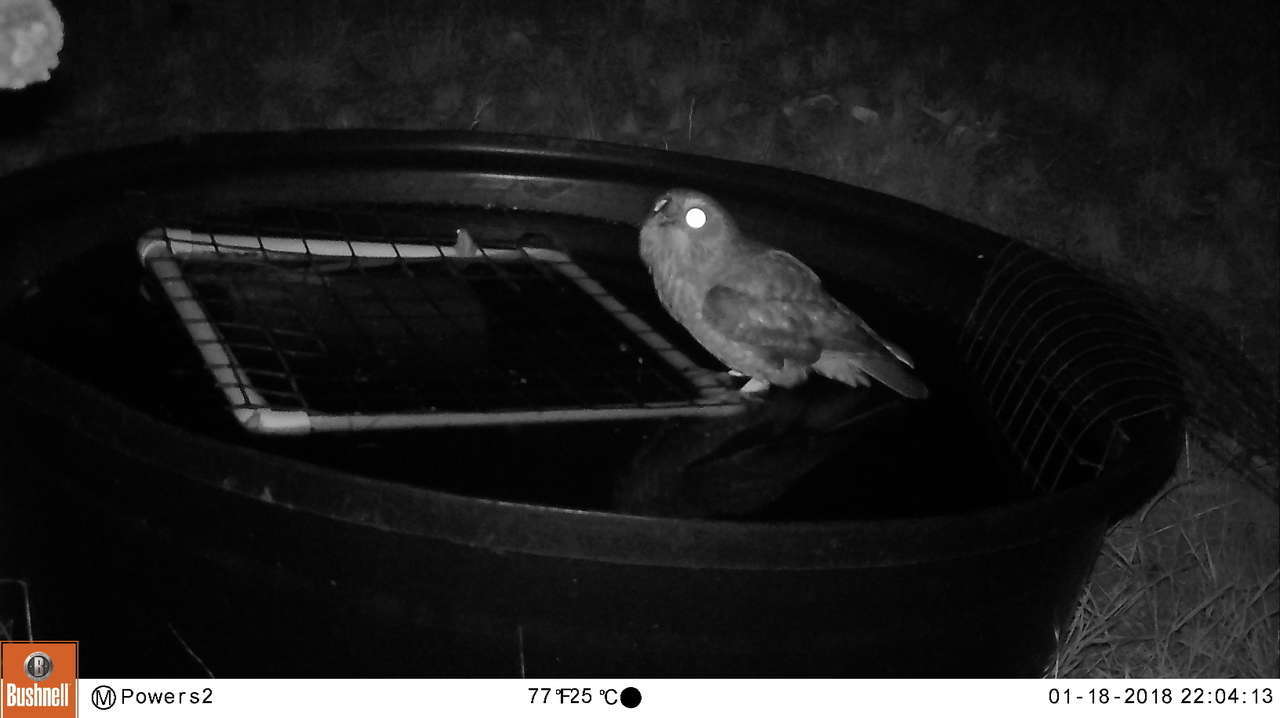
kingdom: Animalia
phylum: Chordata
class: Aves
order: Strigiformes
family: Strigidae
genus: Ninox
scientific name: Ninox boobook
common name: Southern boobook
